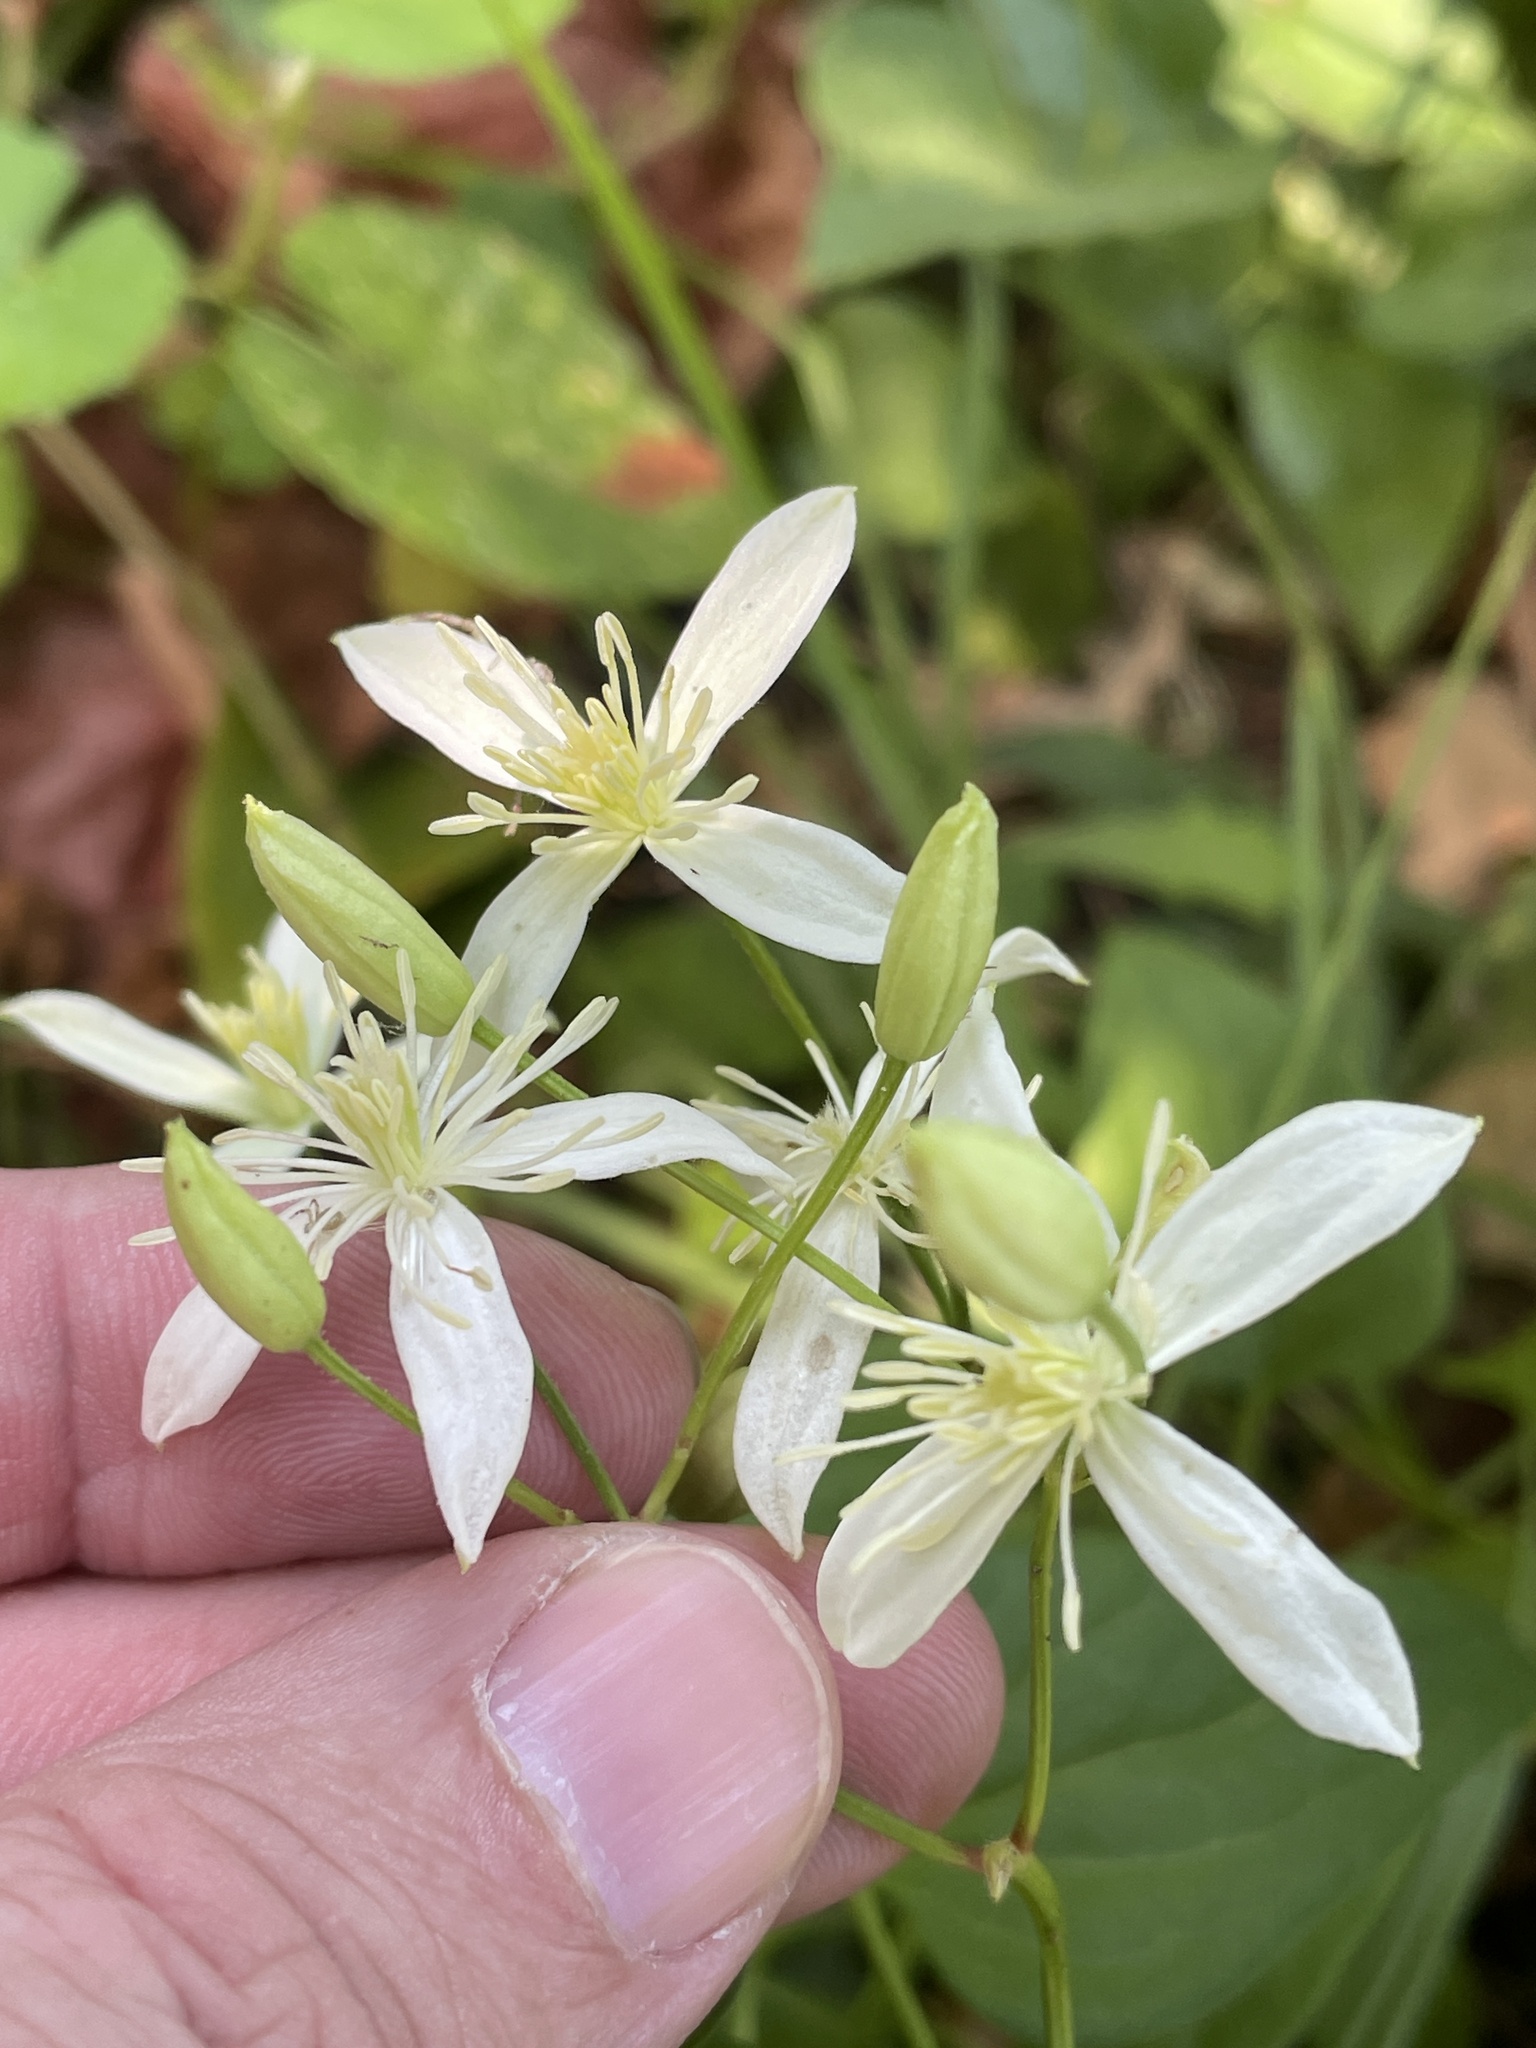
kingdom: Plantae
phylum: Tracheophyta
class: Magnoliopsida
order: Ranunculales
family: Ranunculaceae
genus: Clematis
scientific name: Clematis terniflora
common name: Sweet autumn clematis
